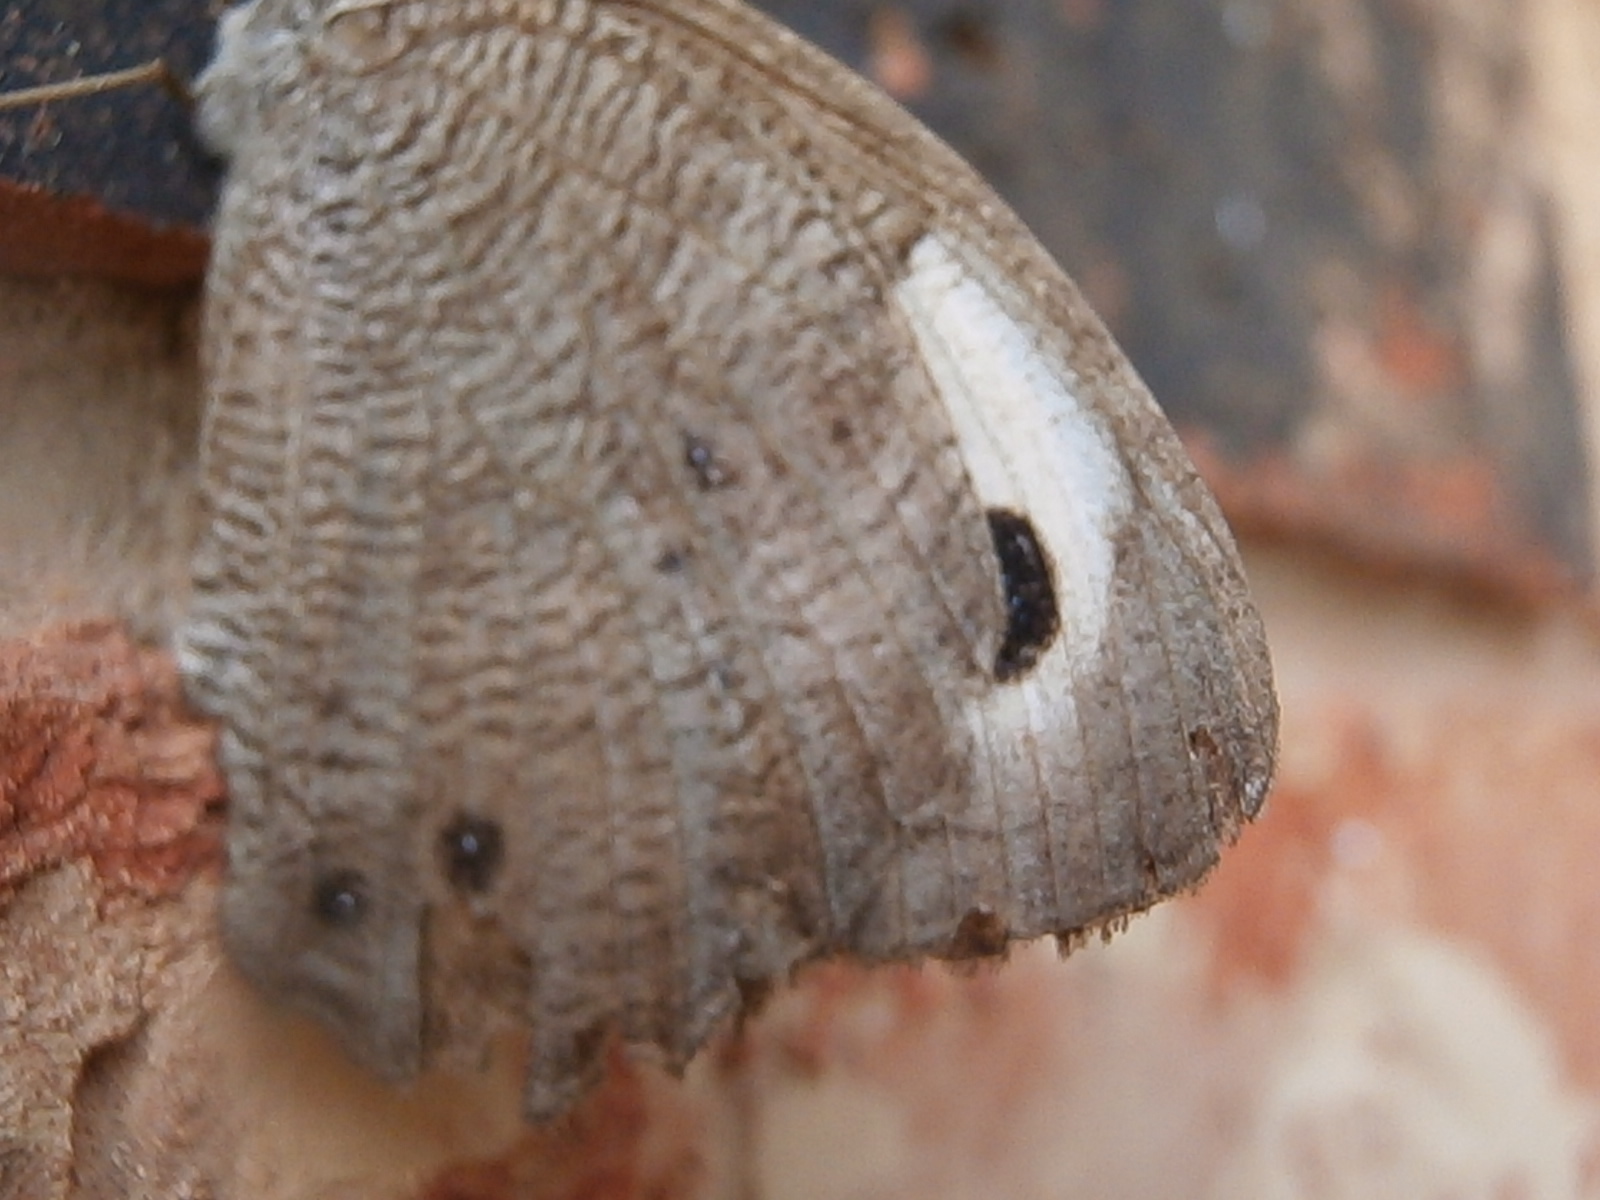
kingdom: Animalia
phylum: Arthropoda
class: Insecta
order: Lepidoptera
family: Nymphalidae
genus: Cercyonis
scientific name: Cercyonis pegala
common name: Common wood-nymph
